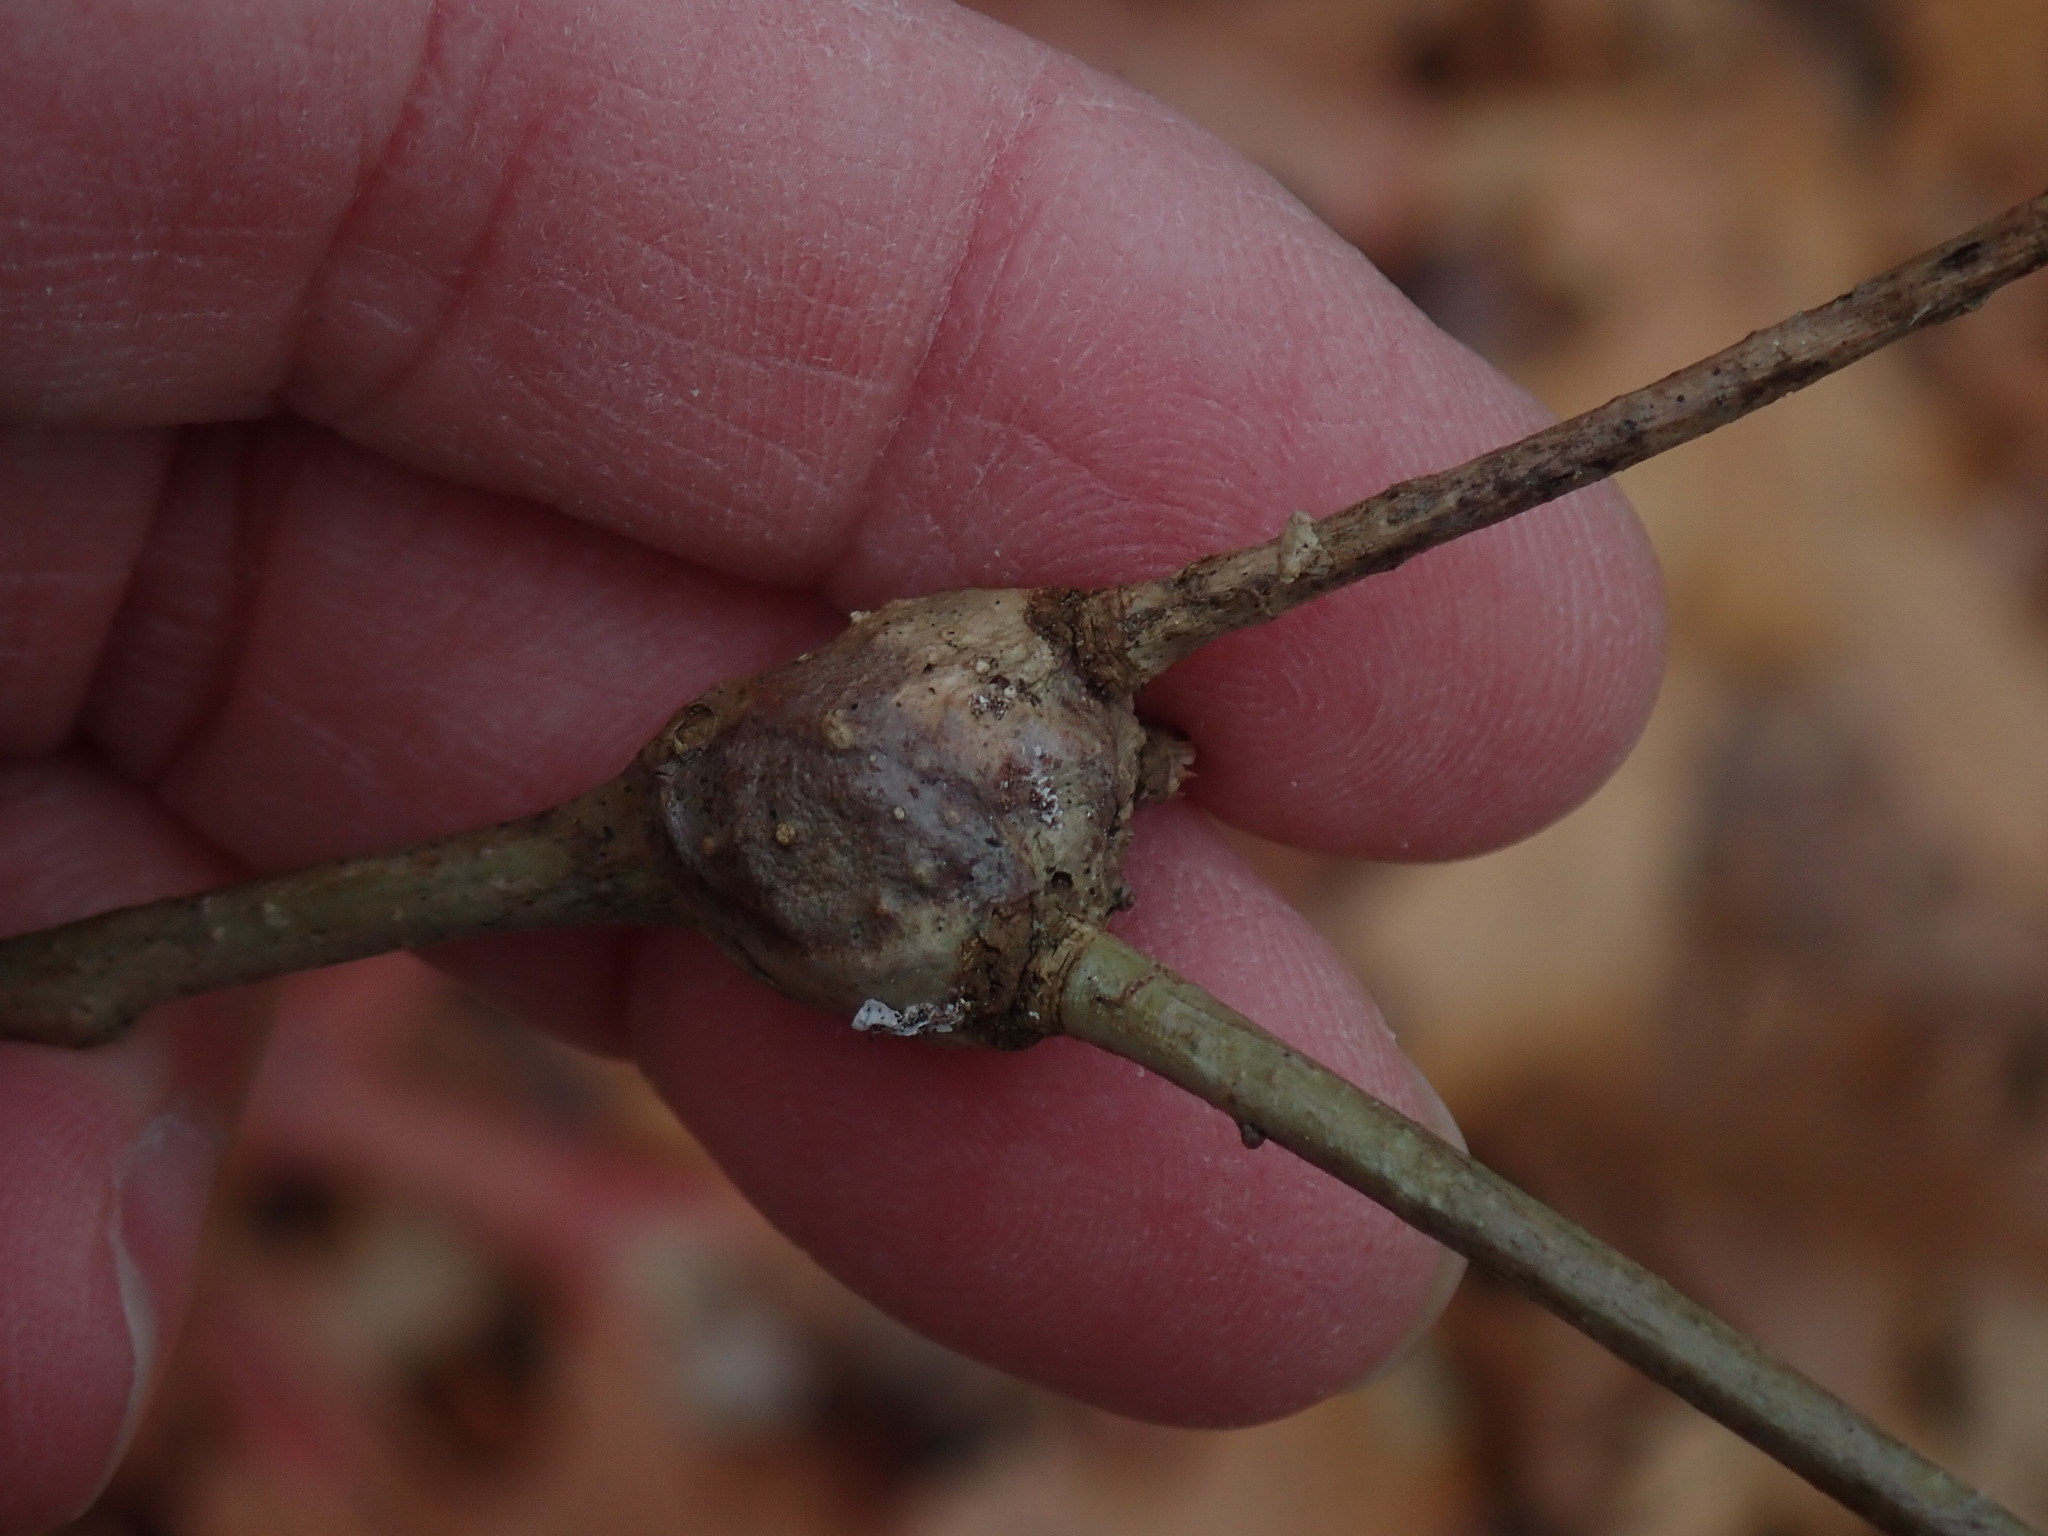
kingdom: Animalia
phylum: Arthropoda
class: Insecta
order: Hymenoptera
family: Cynipidae
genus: Callirhytis
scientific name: Callirhytis clavula
